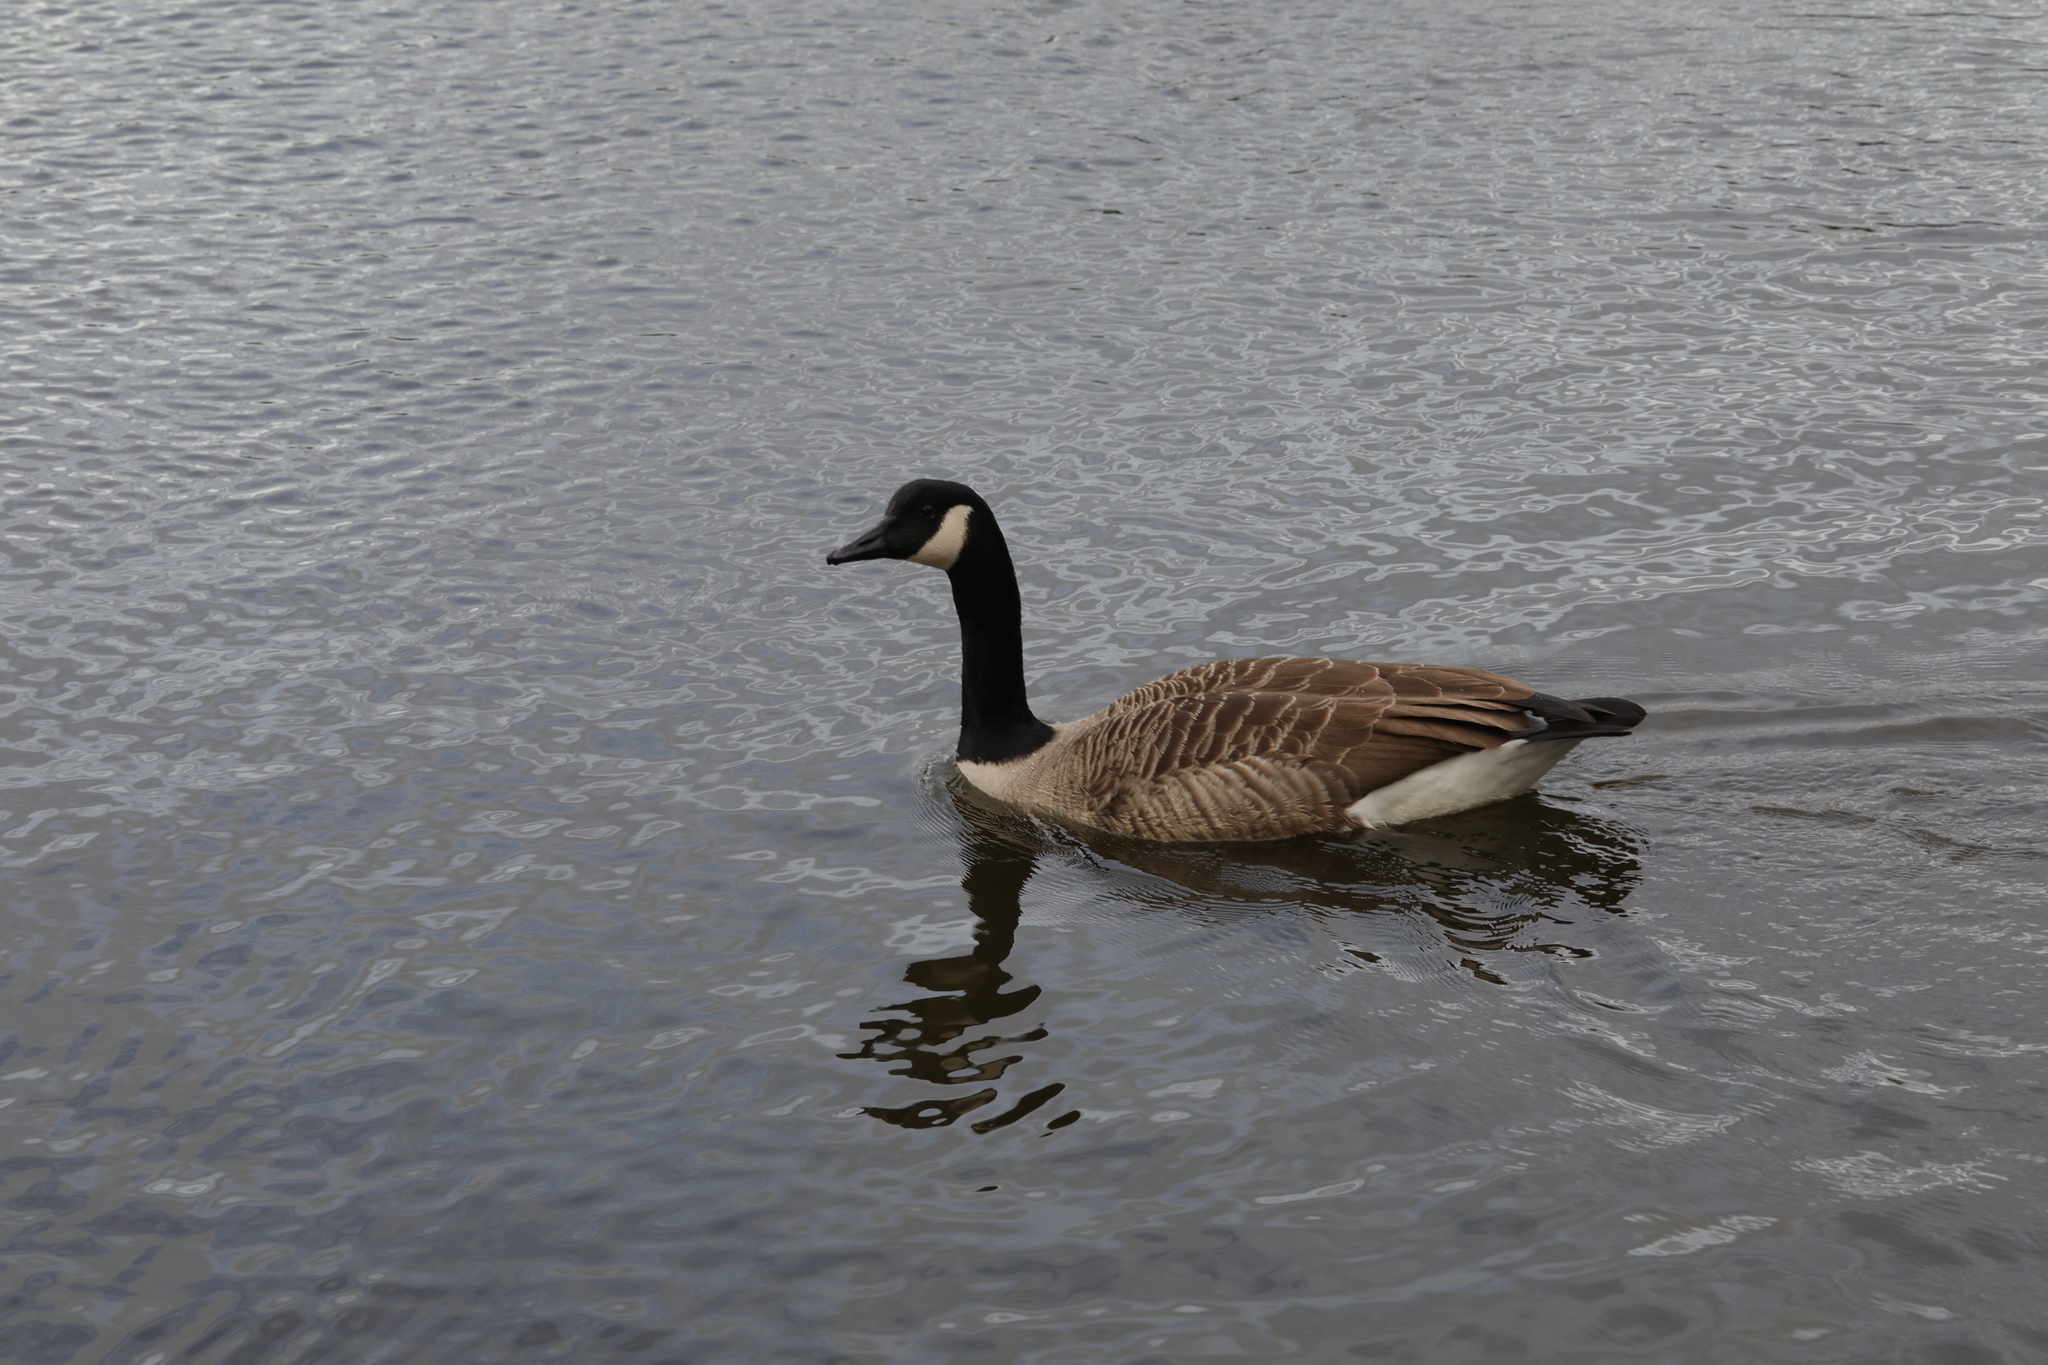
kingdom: Animalia
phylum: Chordata
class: Aves
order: Anseriformes
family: Anatidae
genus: Branta
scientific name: Branta canadensis
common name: Canada goose
